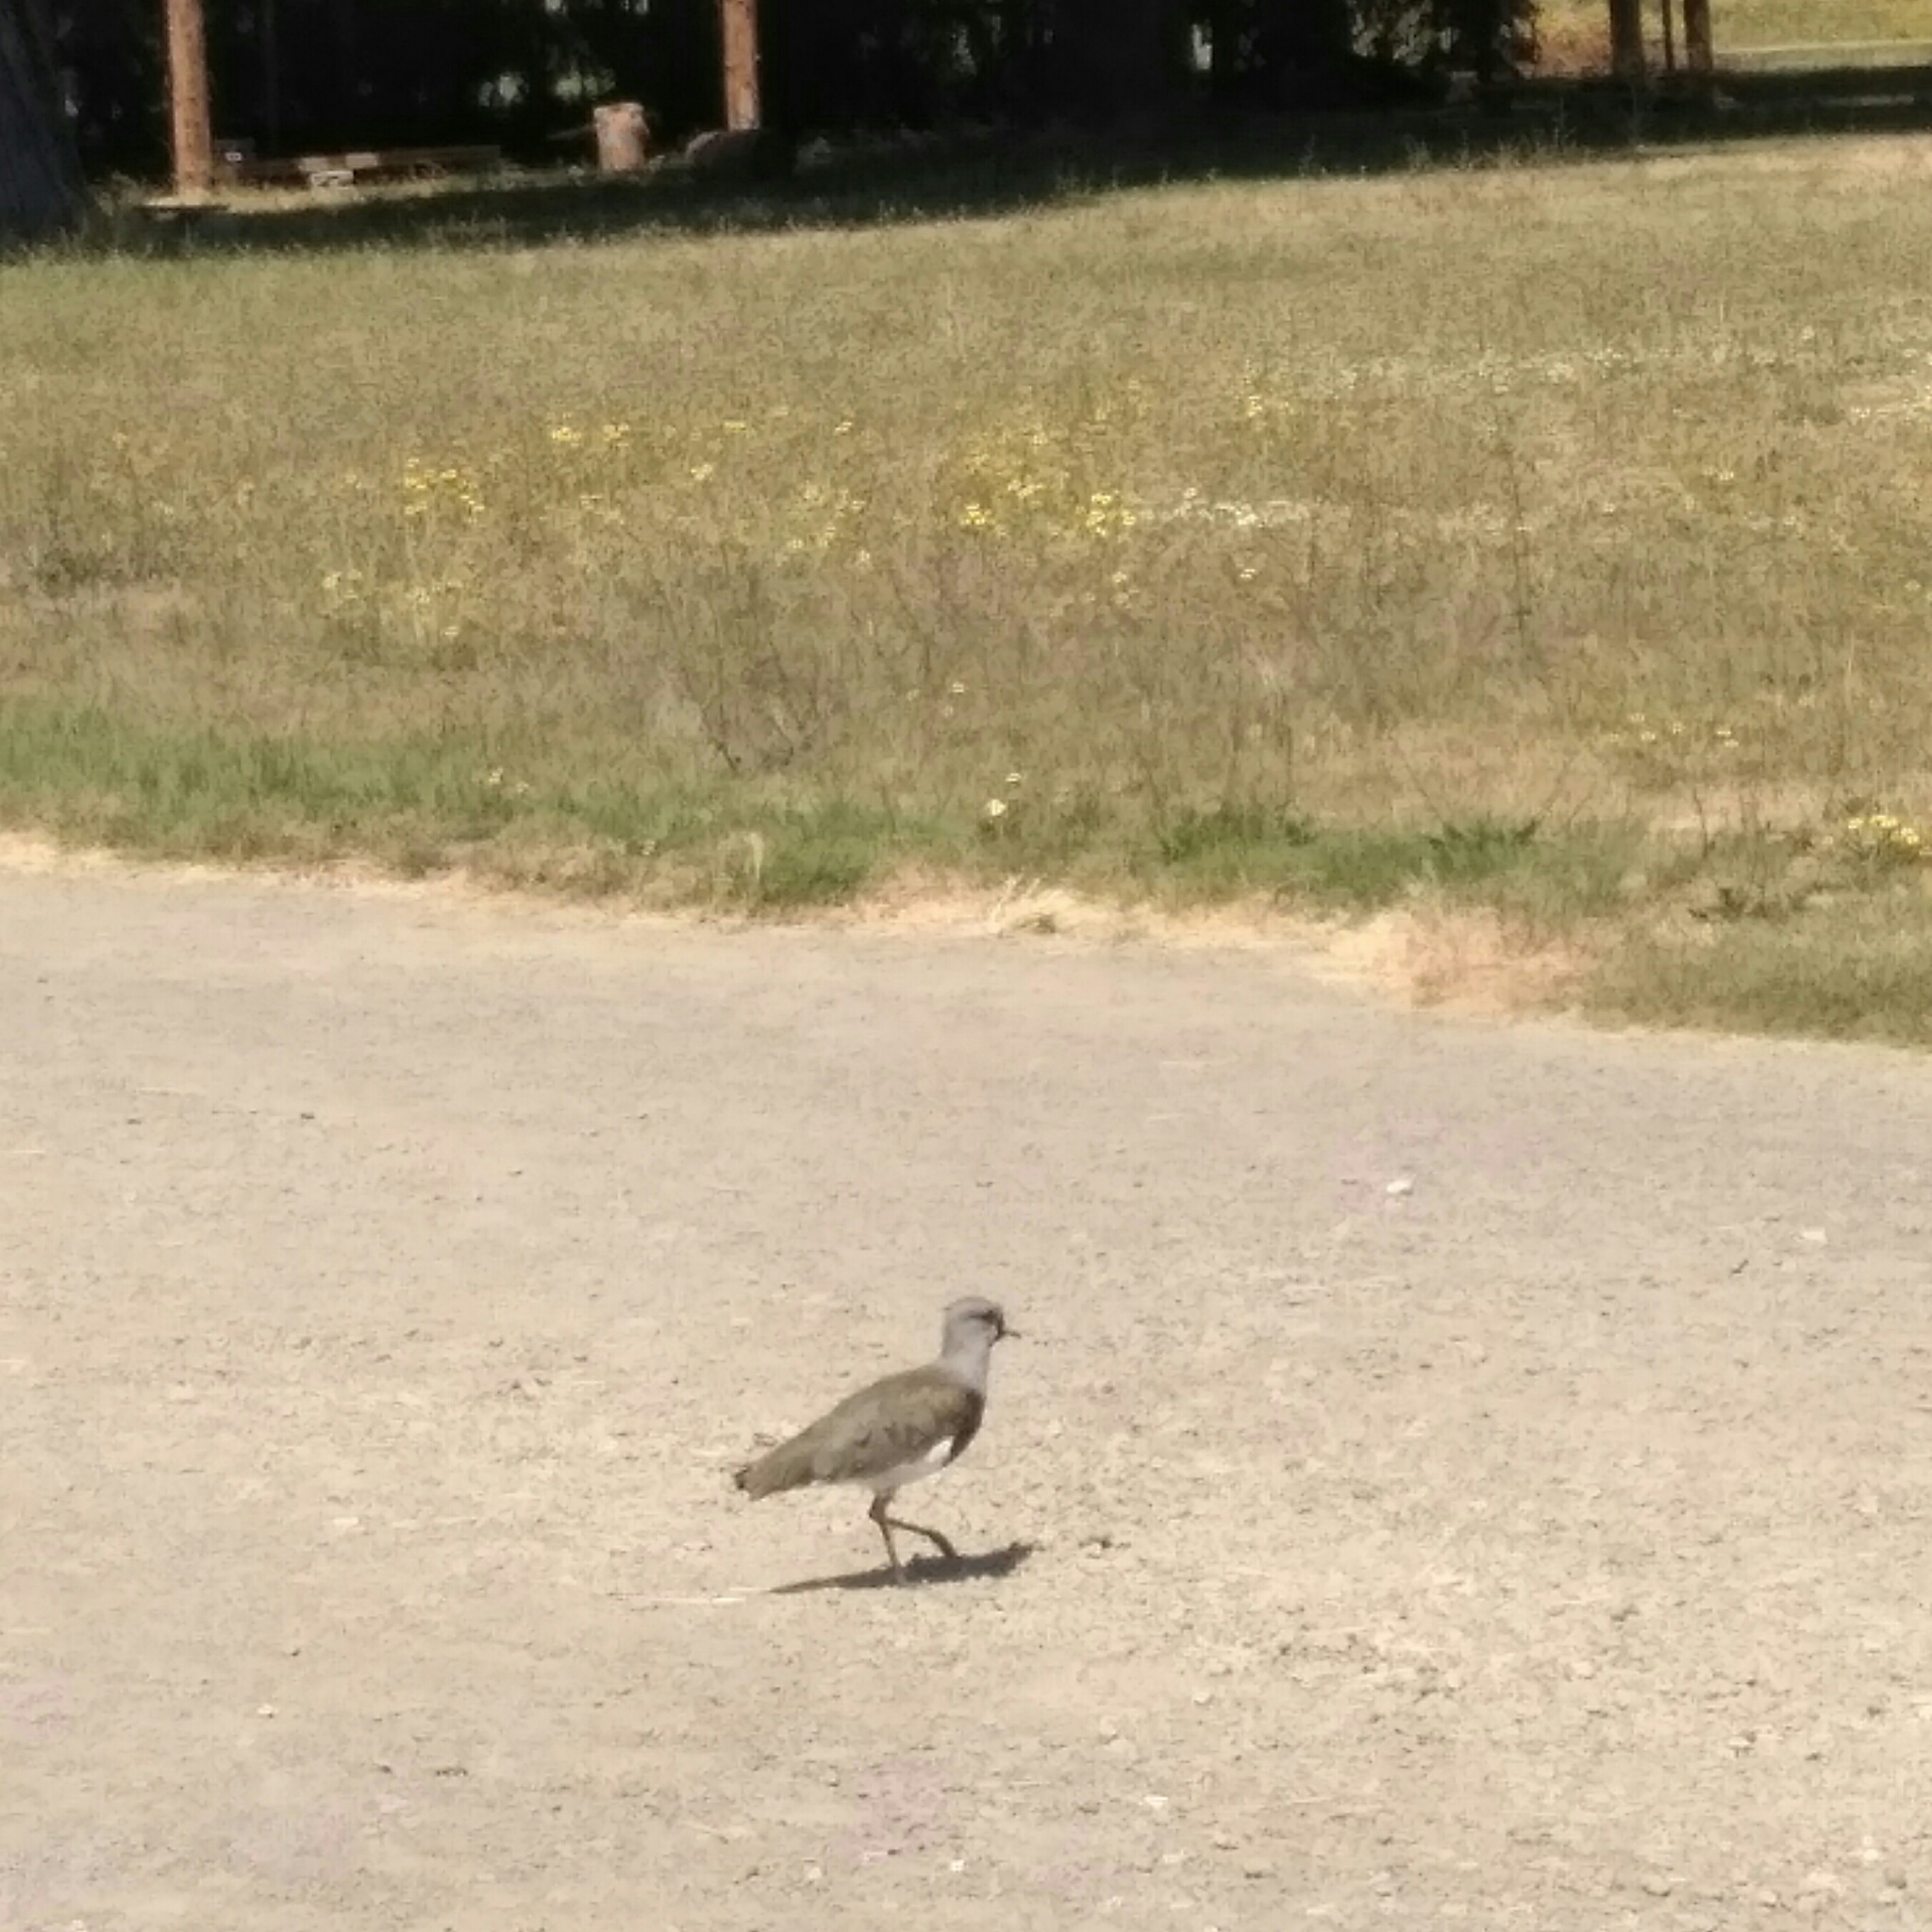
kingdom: Animalia
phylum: Chordata
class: Aves
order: Charadriiformes
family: Charadriidae
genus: Vanellus
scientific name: Vanellus chilensis
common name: Southern lapwing
